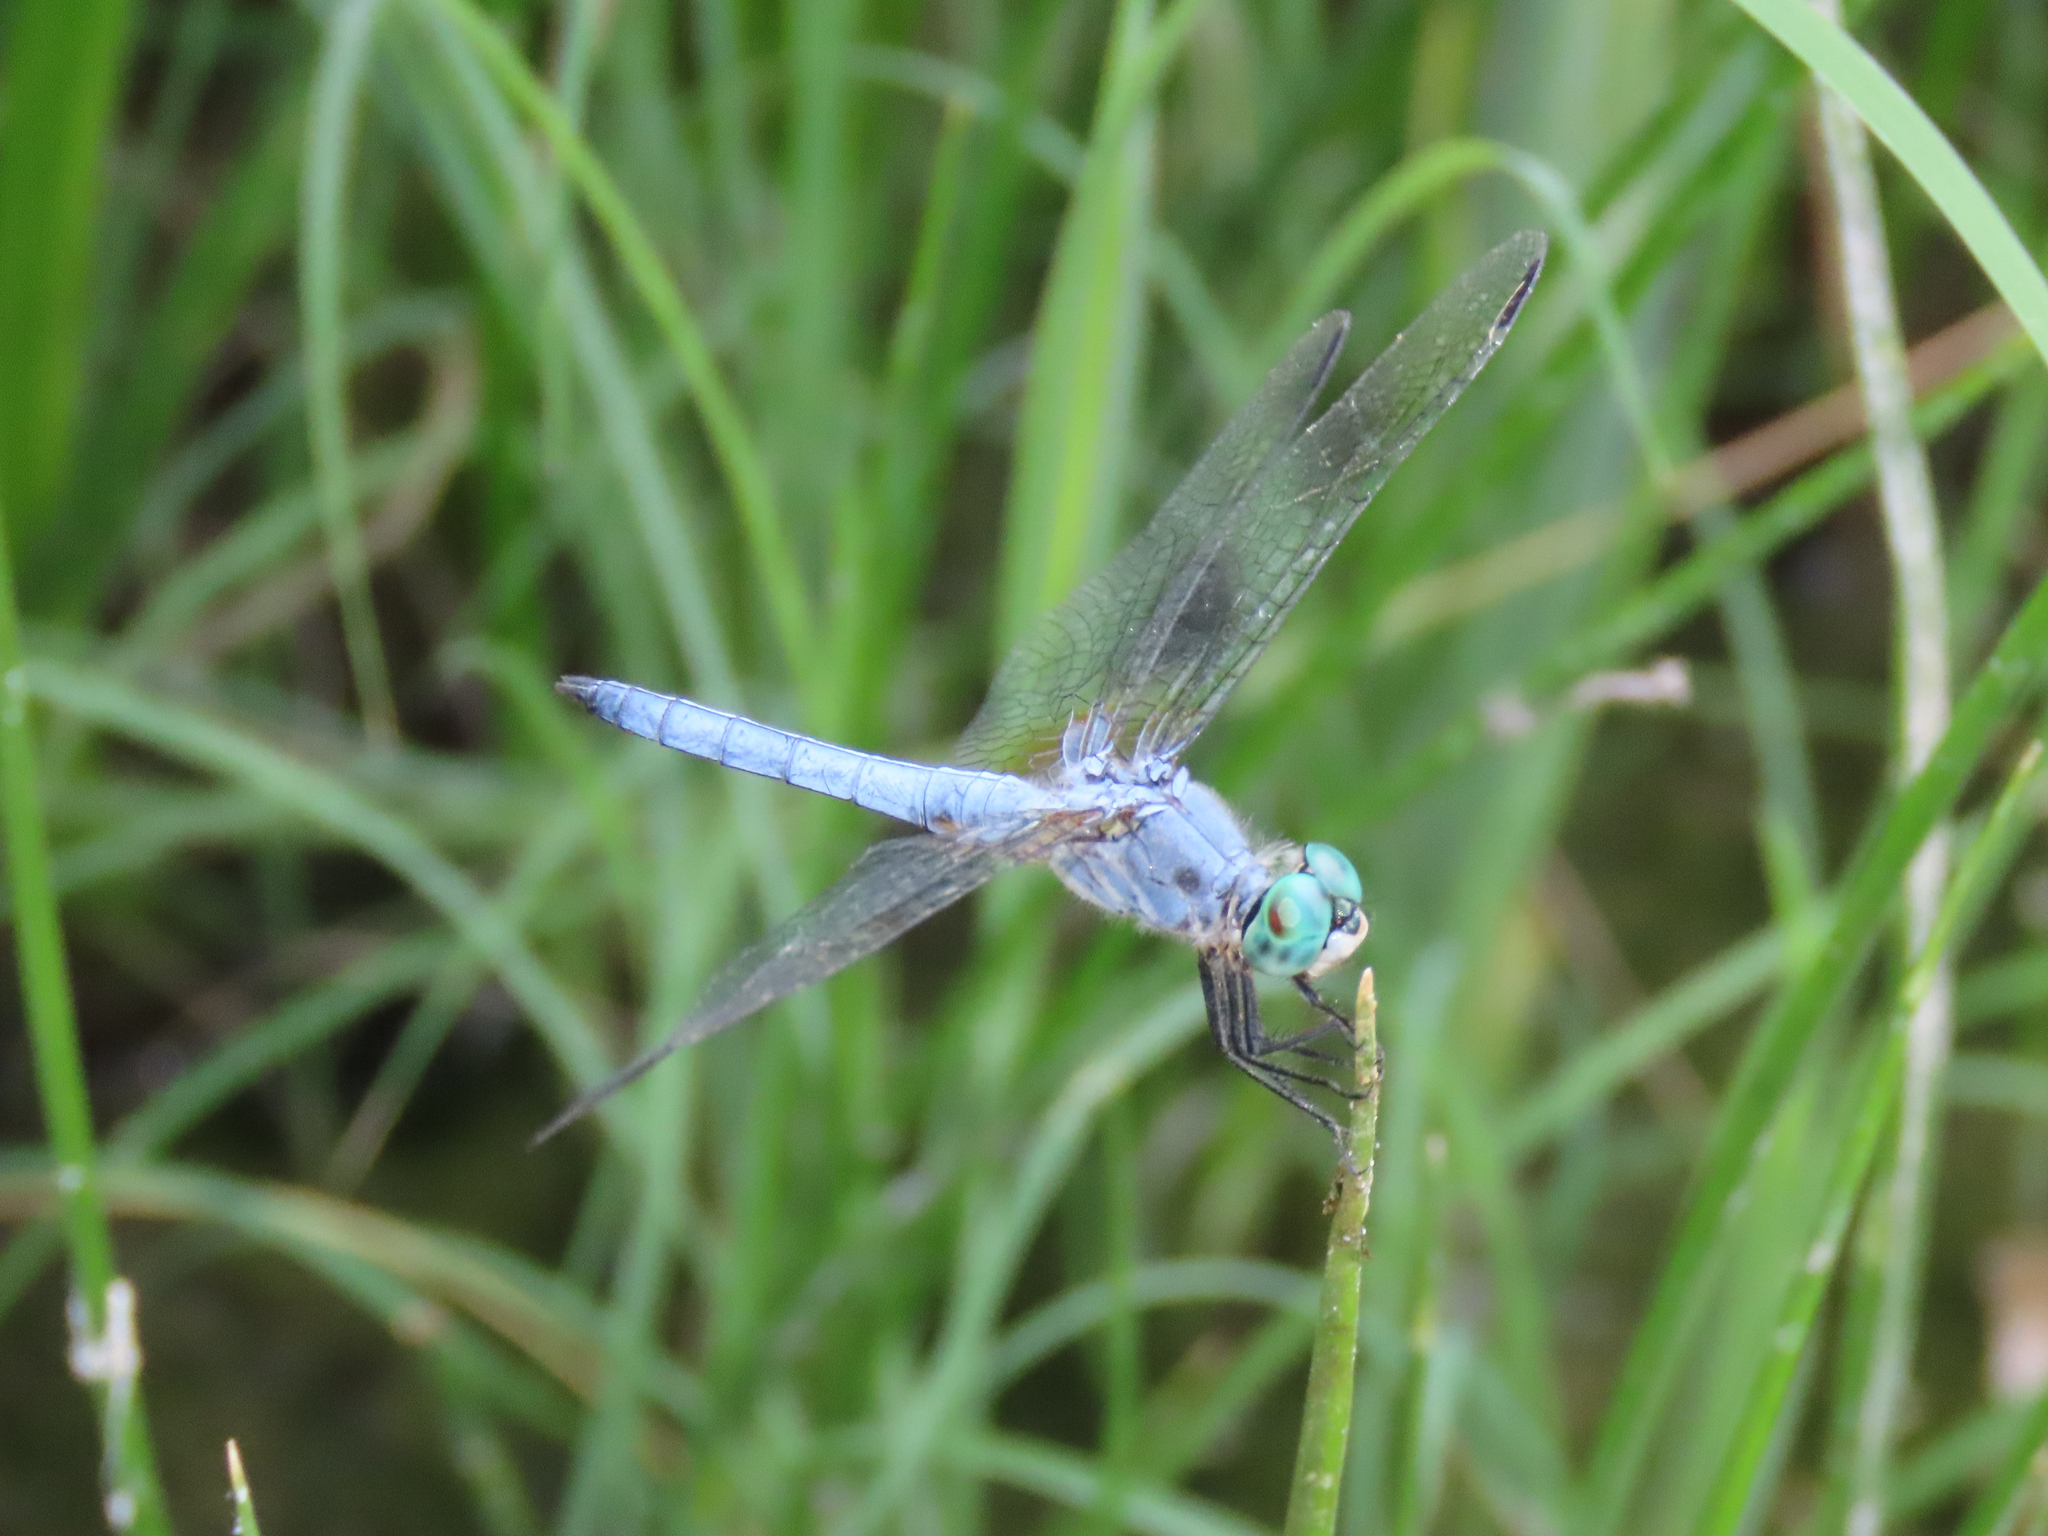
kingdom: Animalia
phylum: Arthropoda
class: Insecta
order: Odonata
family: Libellulidae
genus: Pachydiplax
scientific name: Pachydiplax longipennis
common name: Blue dasher
